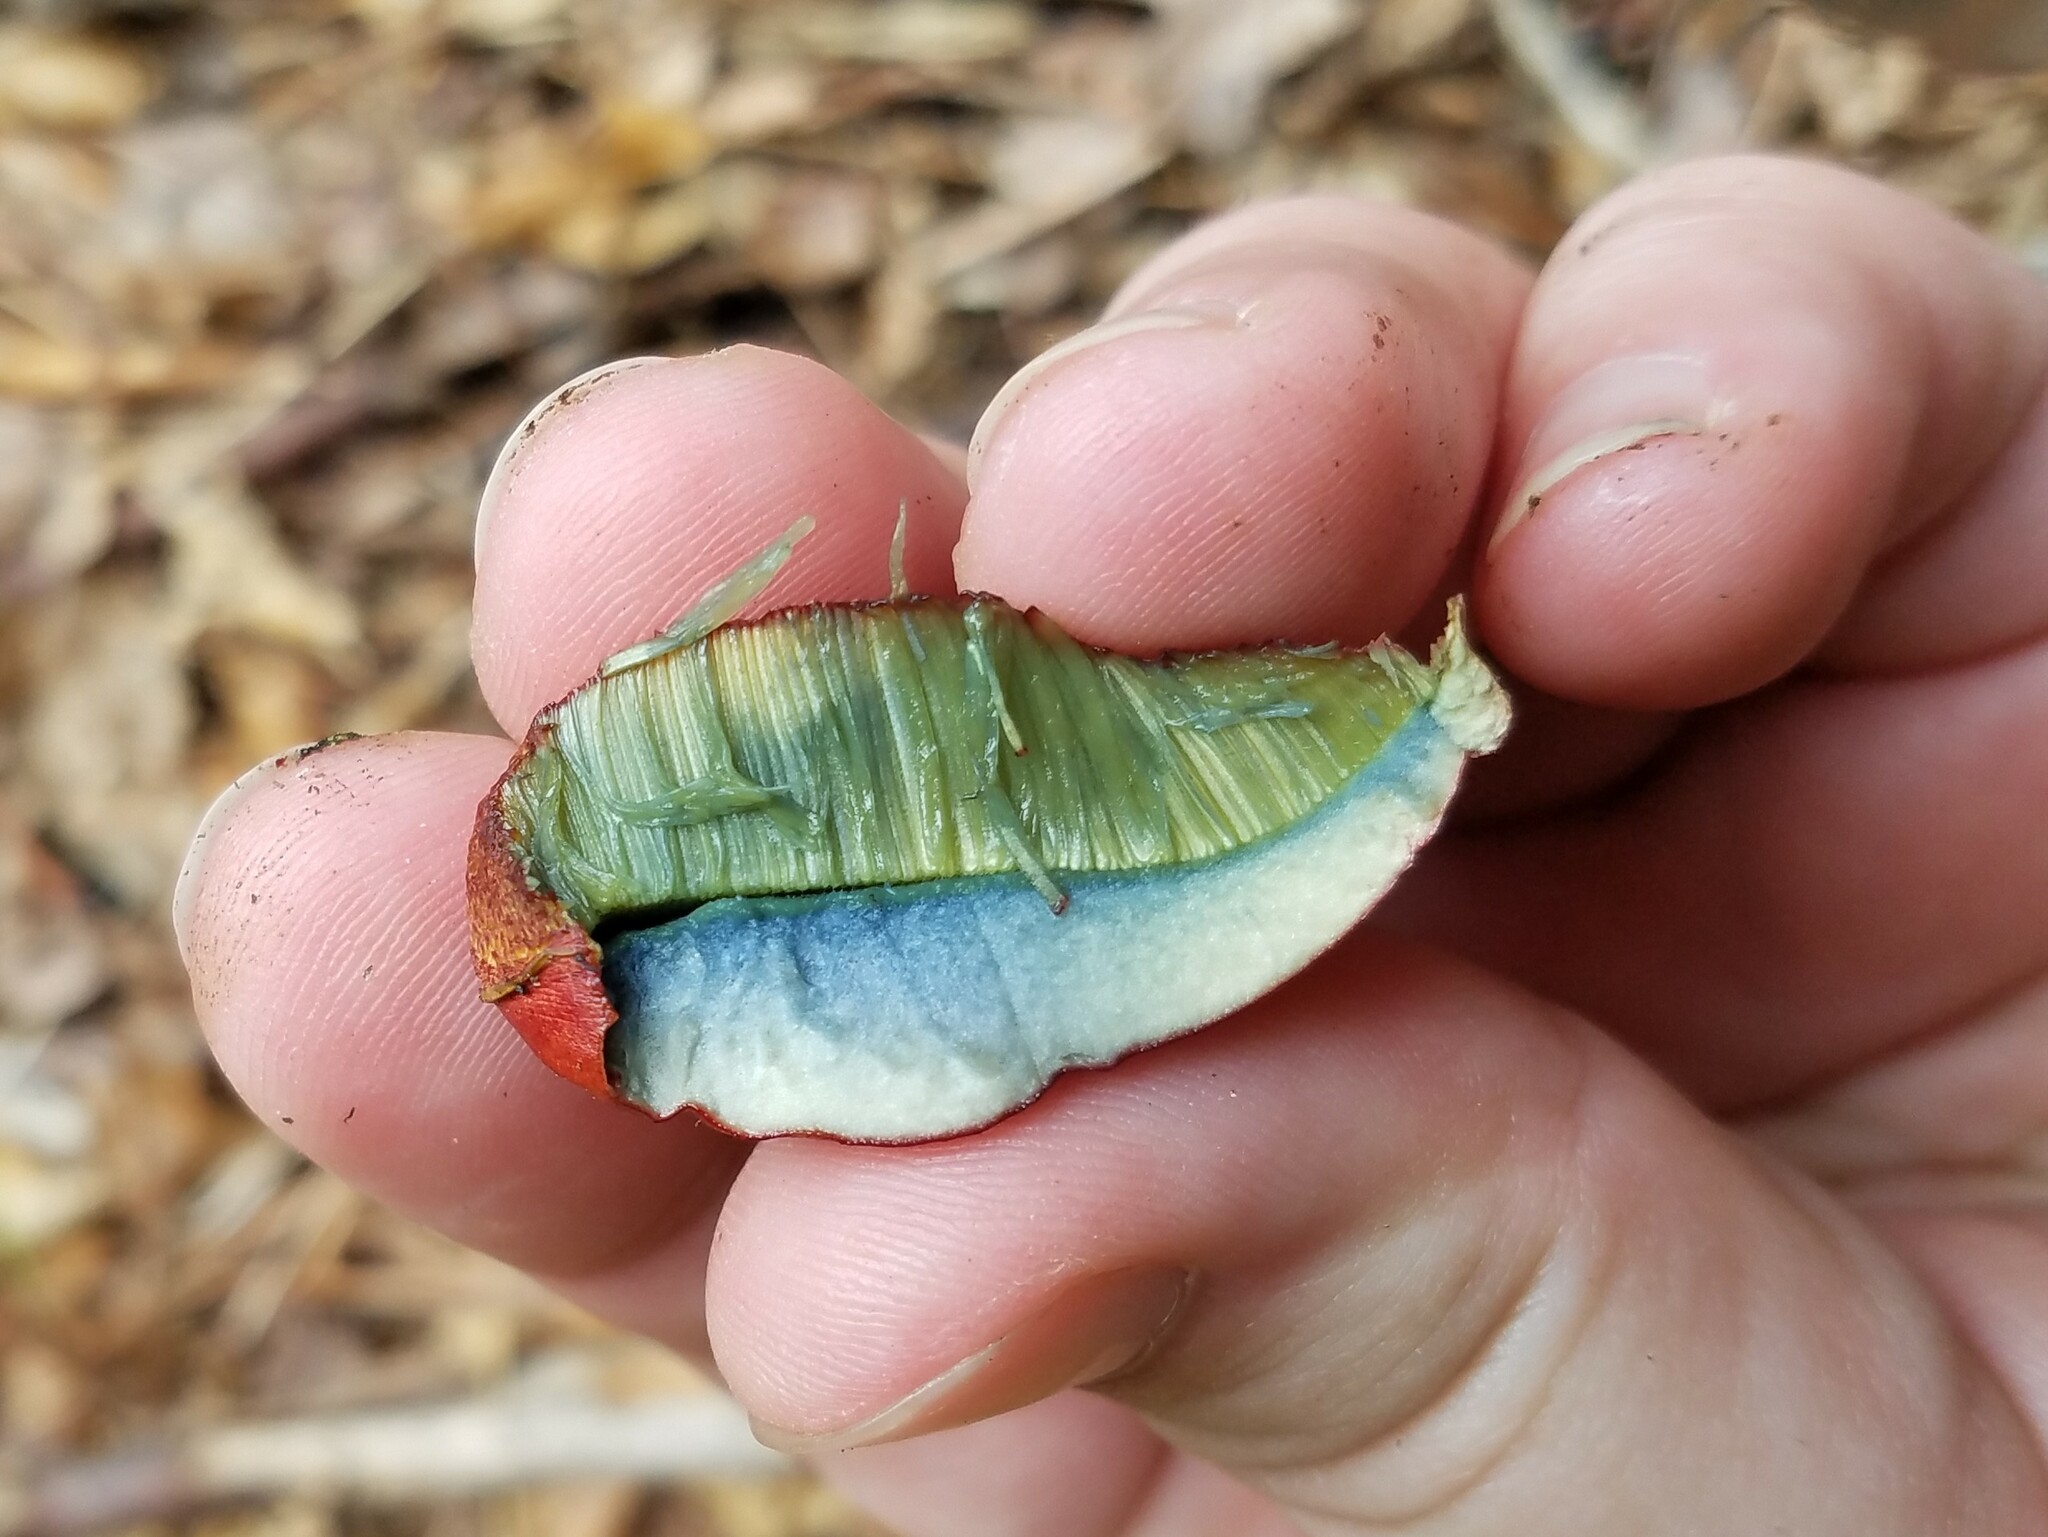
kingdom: Fungi
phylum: Basidiomycota
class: Agaricomycetes
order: Boletales
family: Boletaceae
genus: Butyriboletus
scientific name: Butyriboletus frostii
